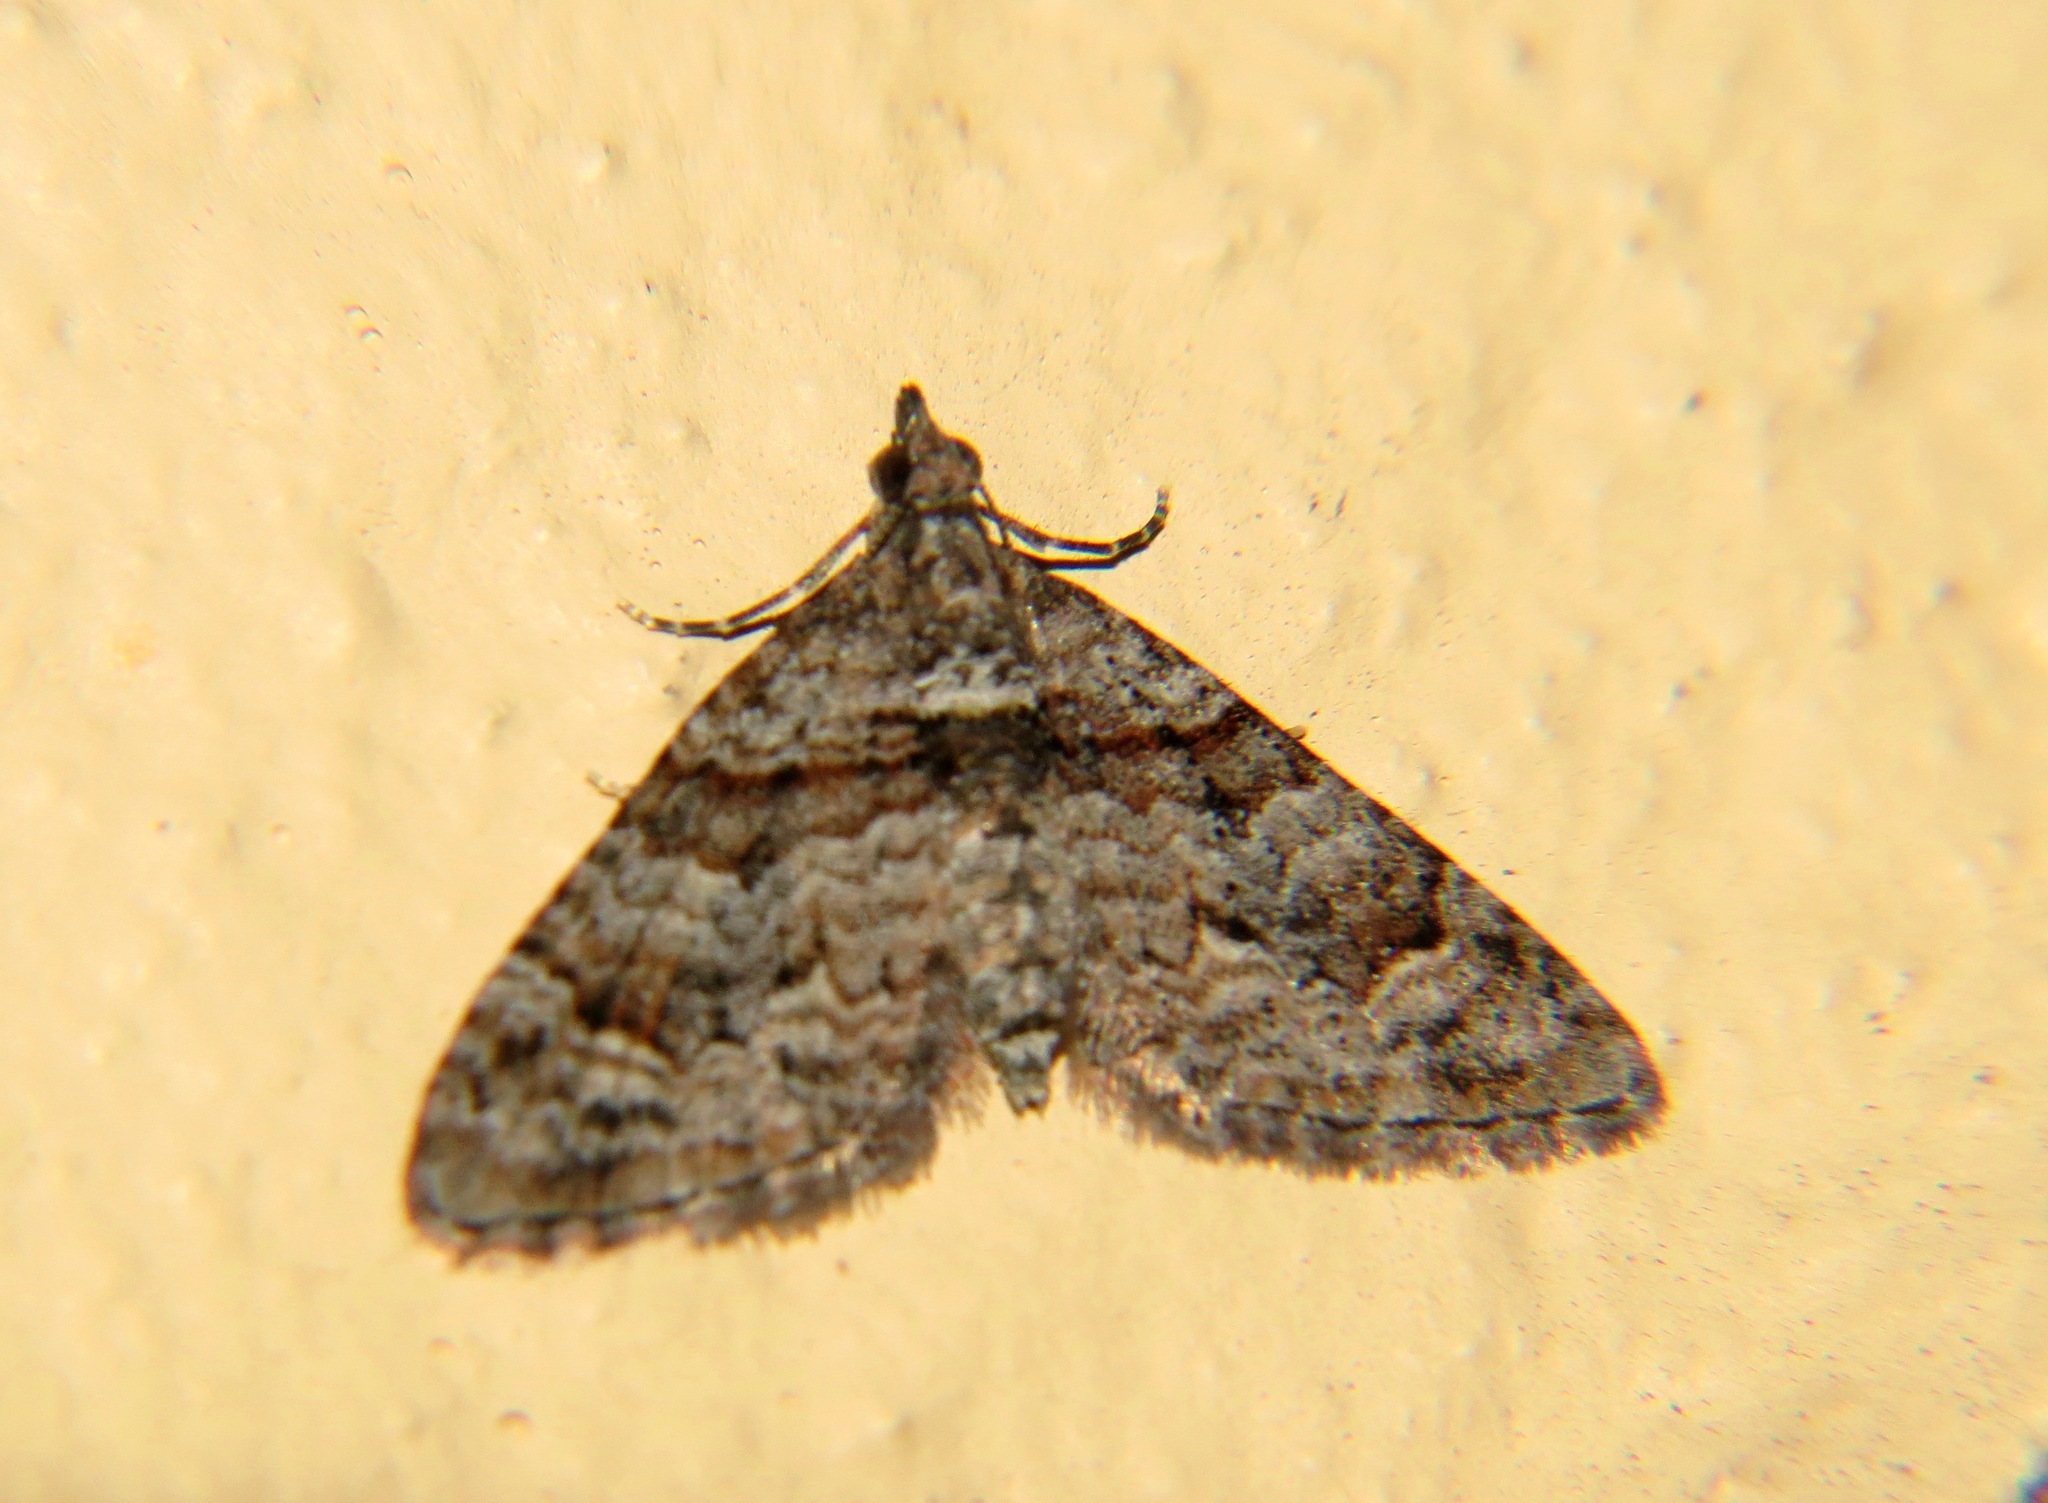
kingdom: Animalia
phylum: Arthropoda
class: Insecta
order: Lepidoptera
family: Geometridae
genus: Phrissogonus
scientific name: Phrissogonus laticostata
